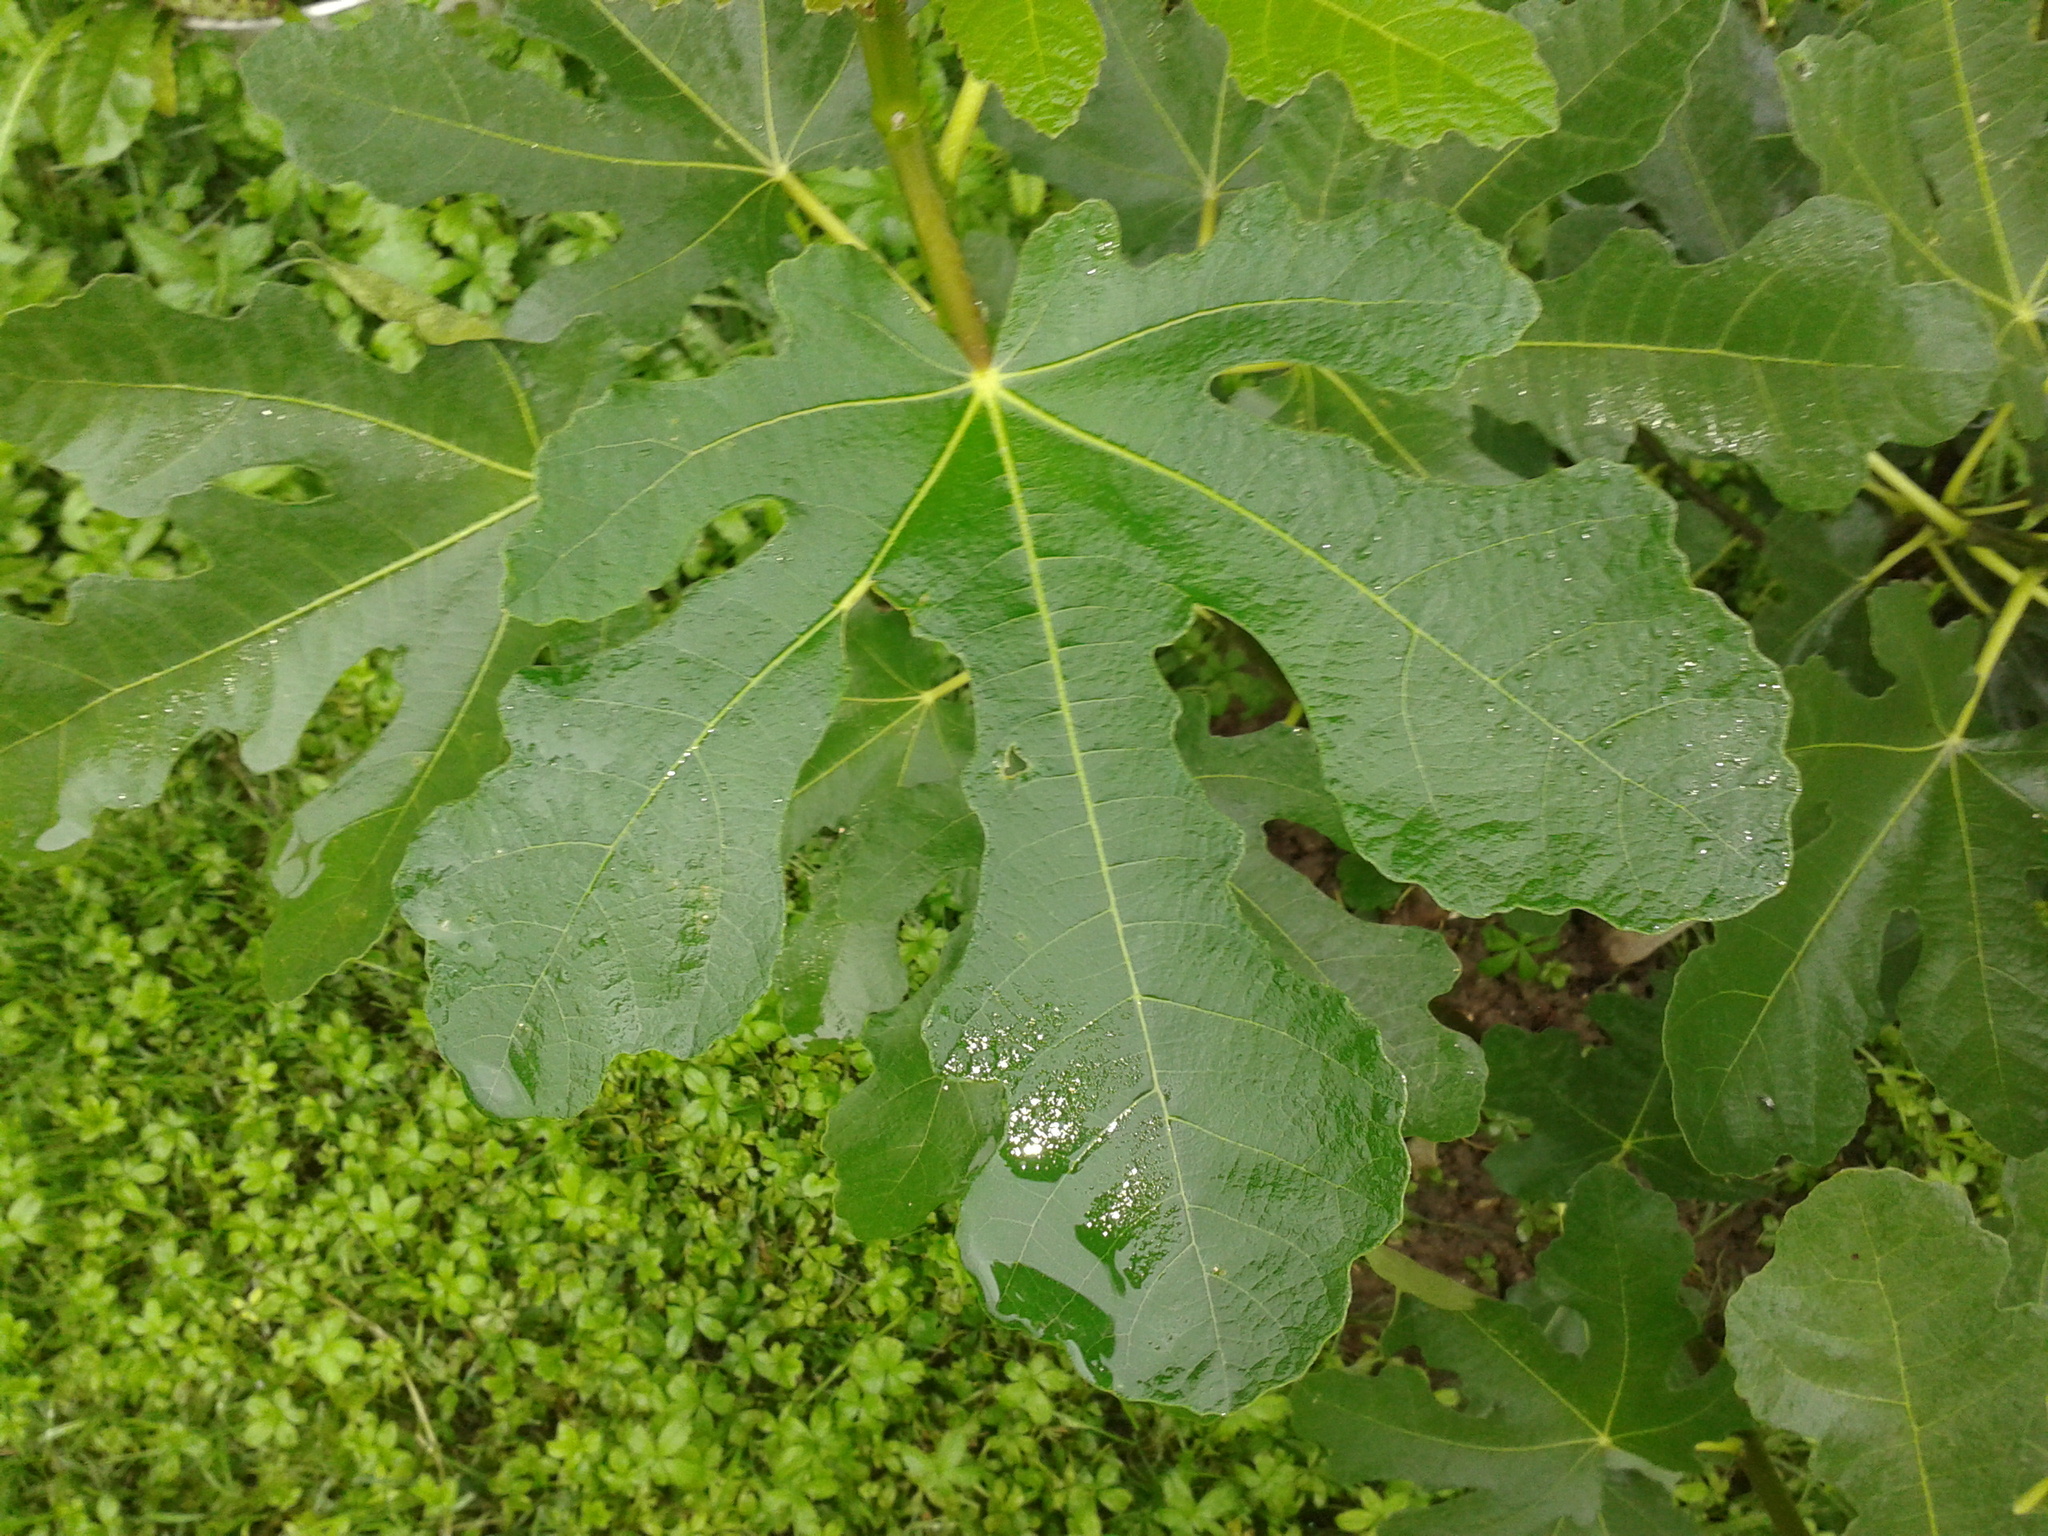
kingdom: Plantae
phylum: Tracheophyta
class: Magnoliopsida
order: Rosales
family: Moraceae
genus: Ficus
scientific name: Ficus carica
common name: Fig
